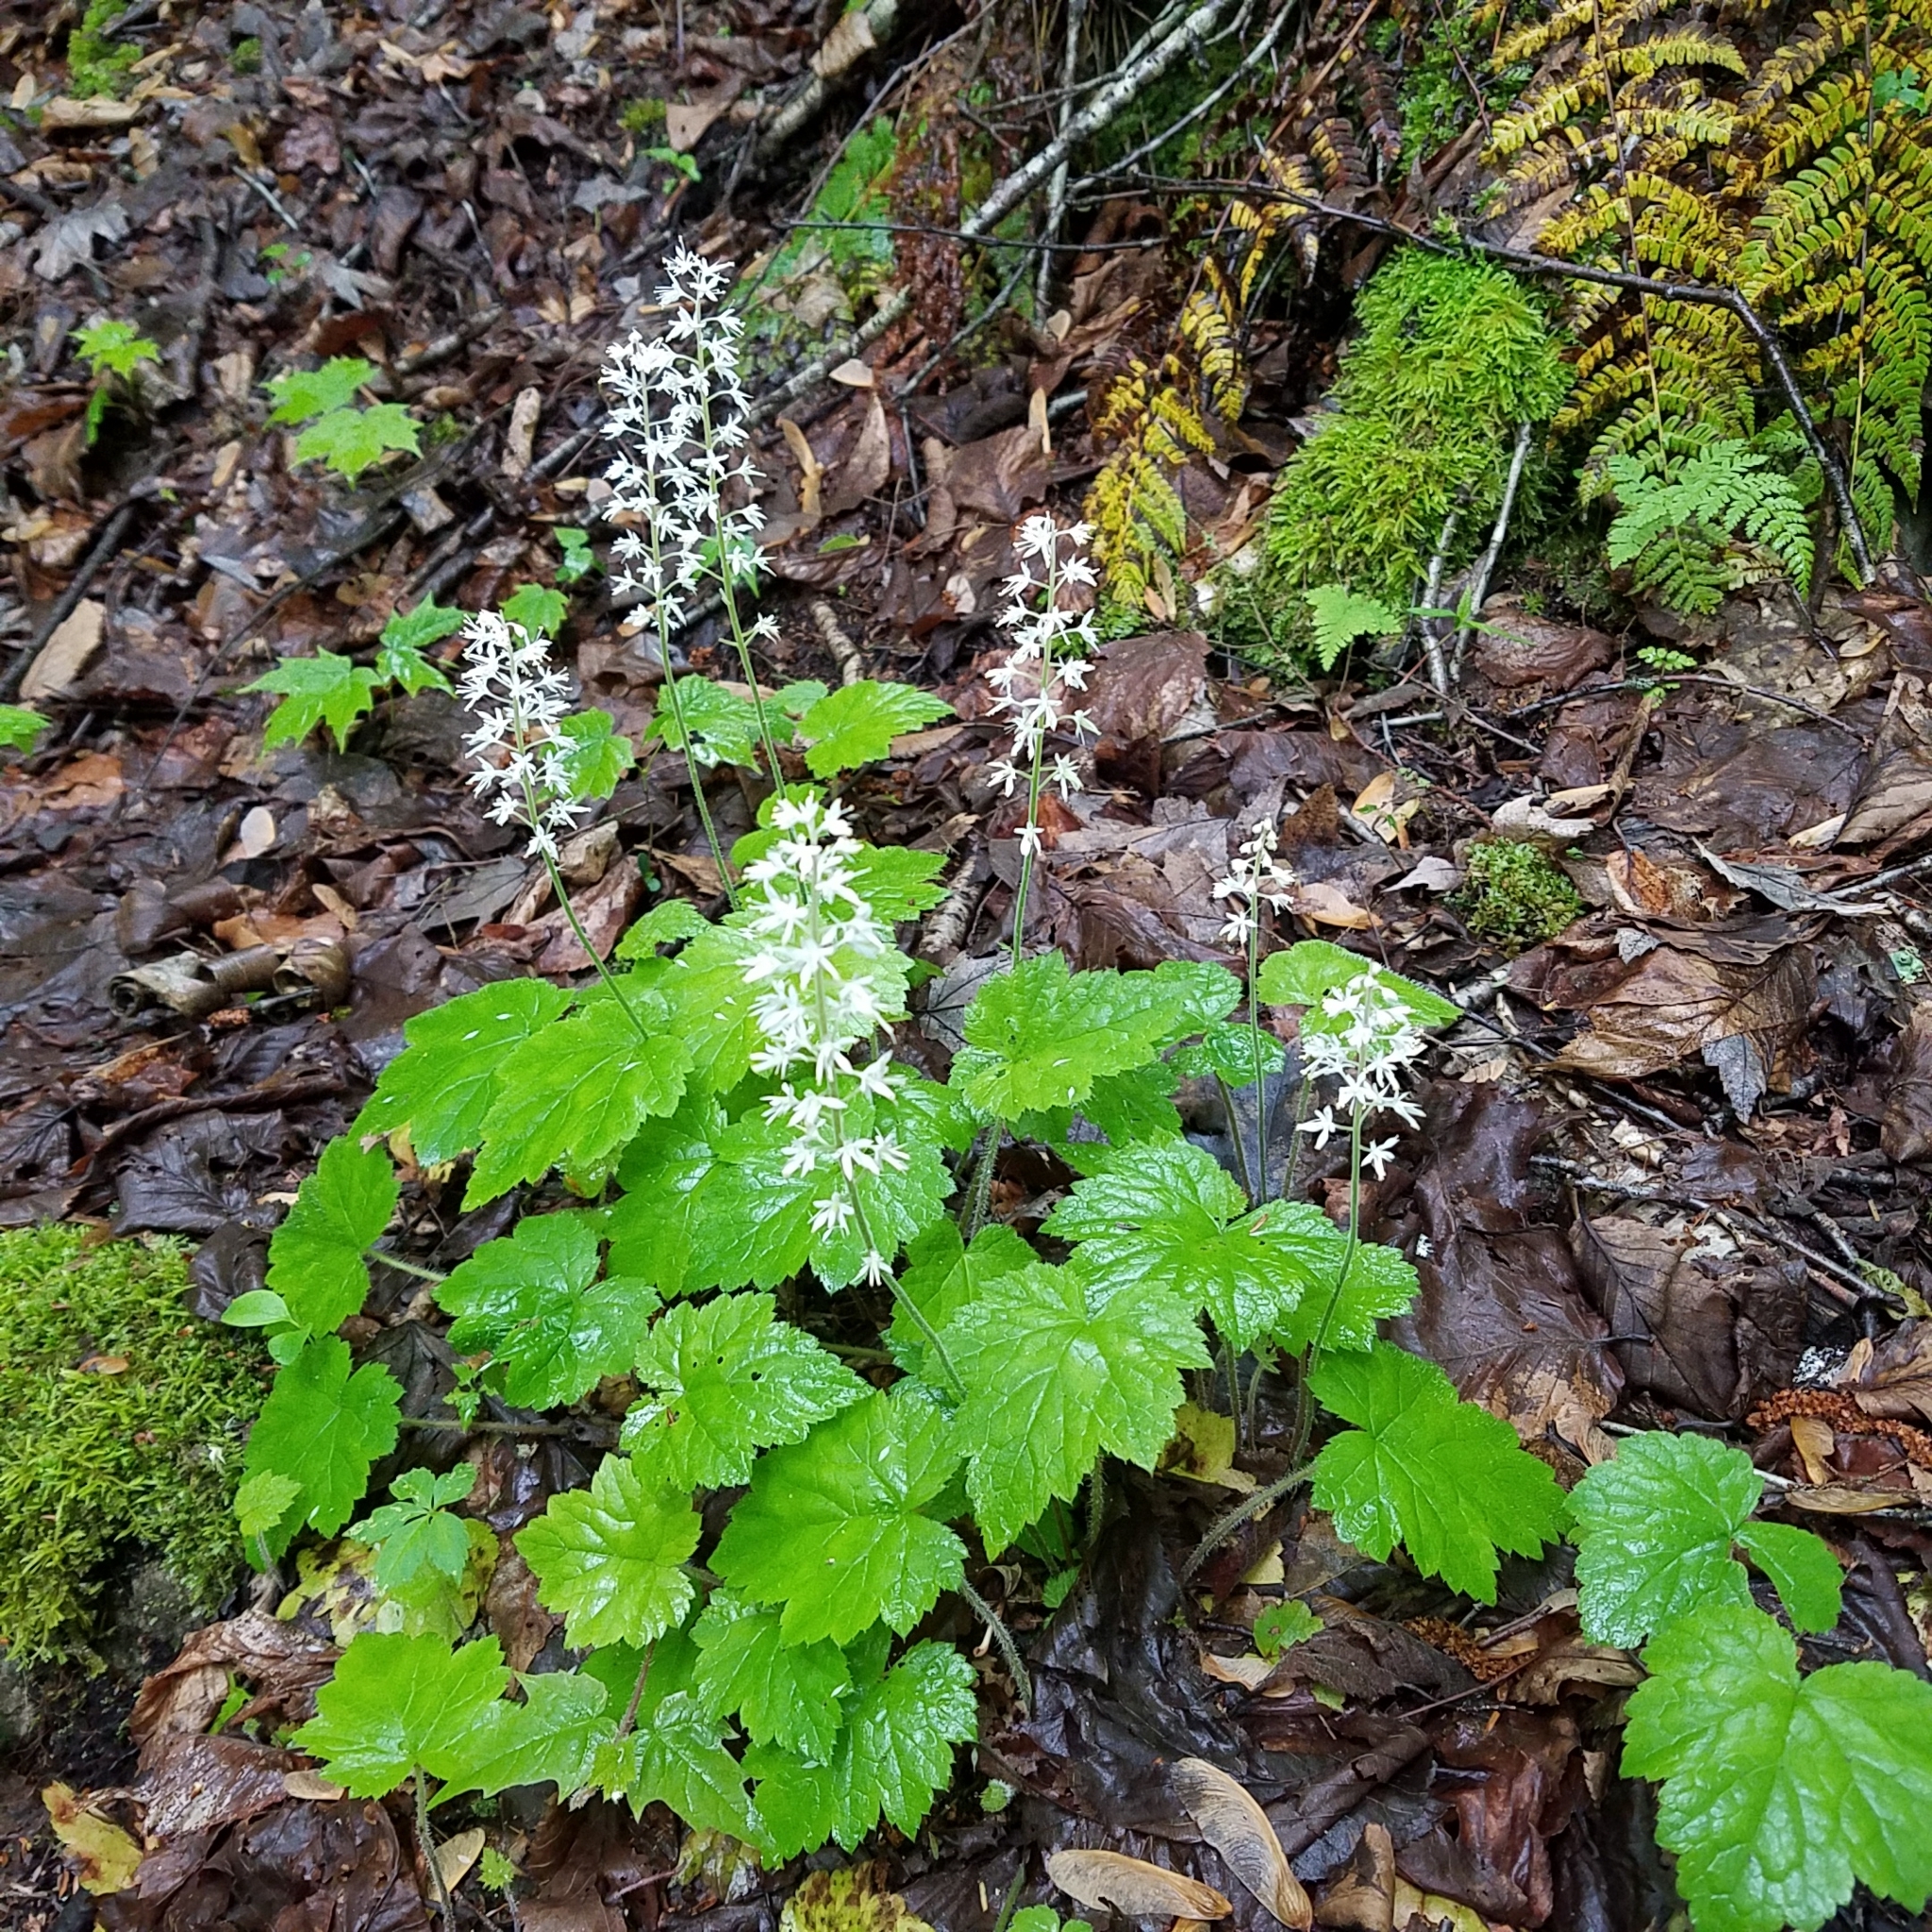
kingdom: Plantae
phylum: Tracheophyta
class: Magnoliopsida
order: Saxifragales
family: Saxifragaceae
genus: Tiarella
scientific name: Tiarella stolonifera
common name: Stoloniferous foamflower
